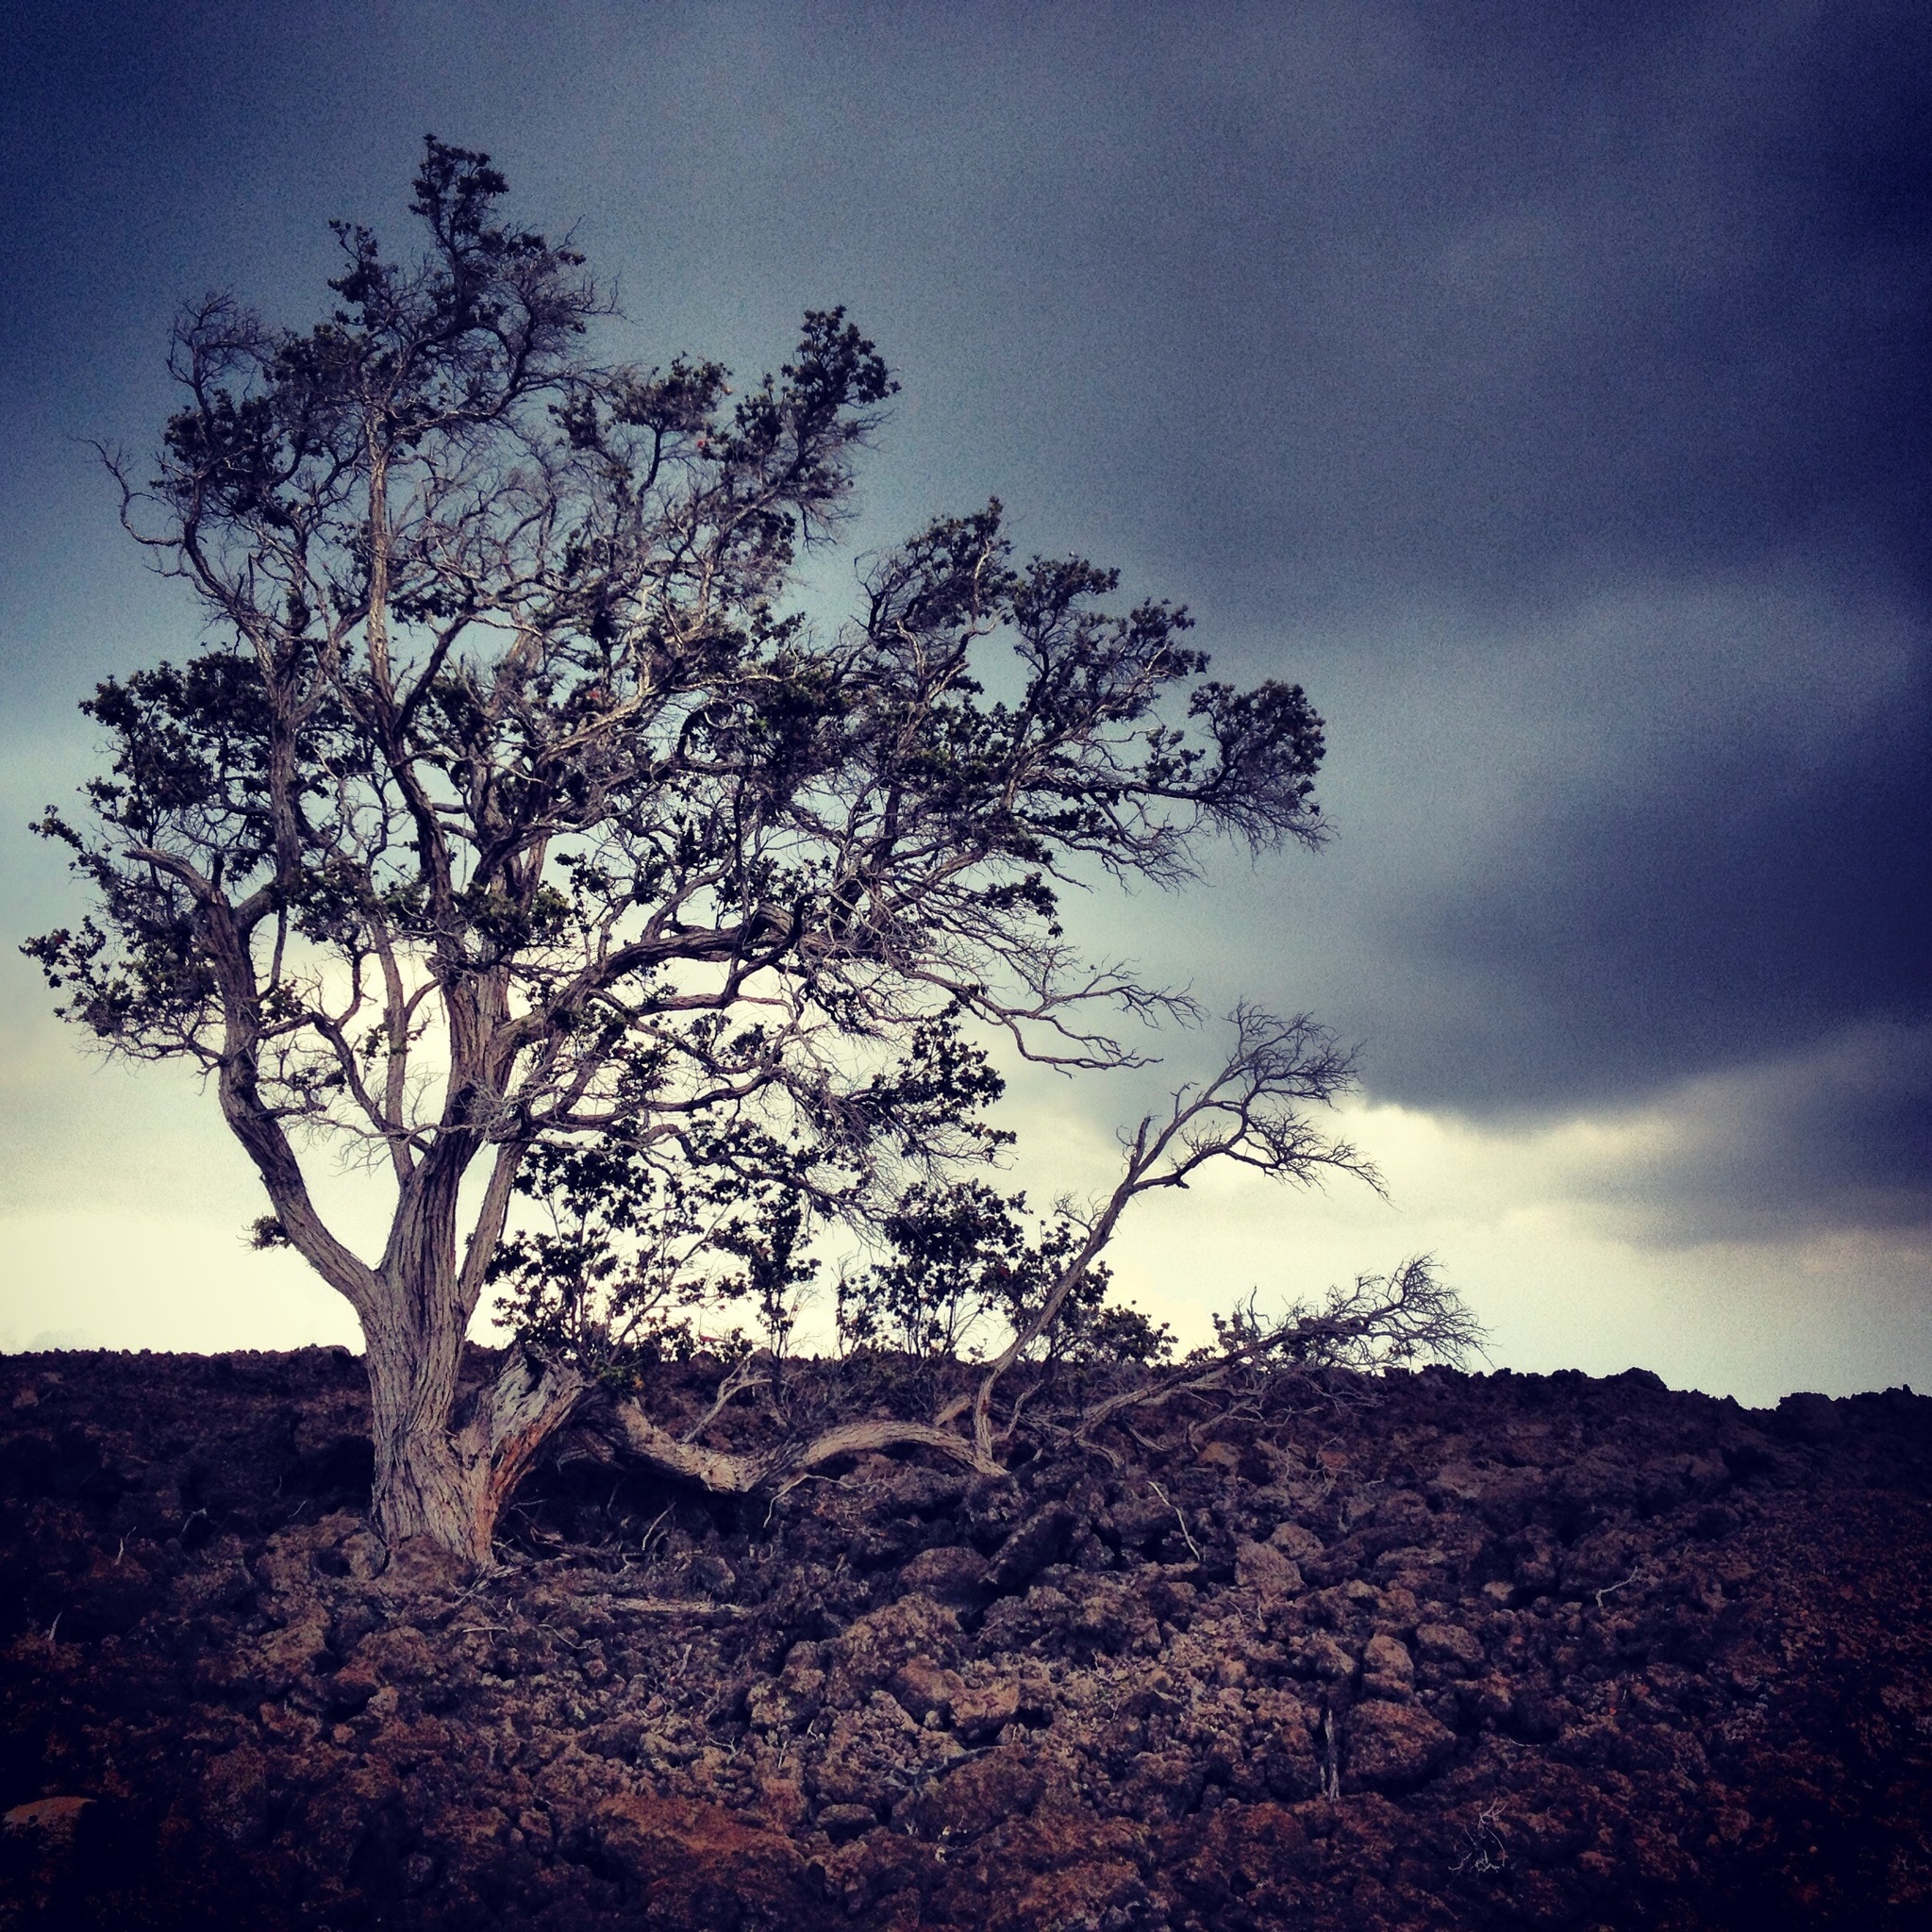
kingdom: Plantae
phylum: Tracheophyta
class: Magnoliopsida
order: Myrtales
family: Myrtaceae
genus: Metrosideros
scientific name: Metrosideros polymorpha
